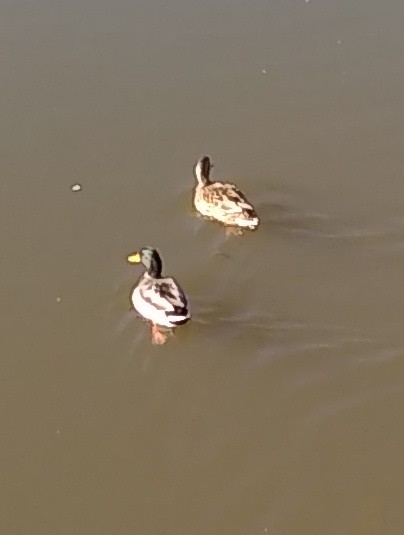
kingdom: Animalia
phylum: Chordata
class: Aves
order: Anseriformes
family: Anatidae
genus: Anas
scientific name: Anas platyrhynchos
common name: Mallard
